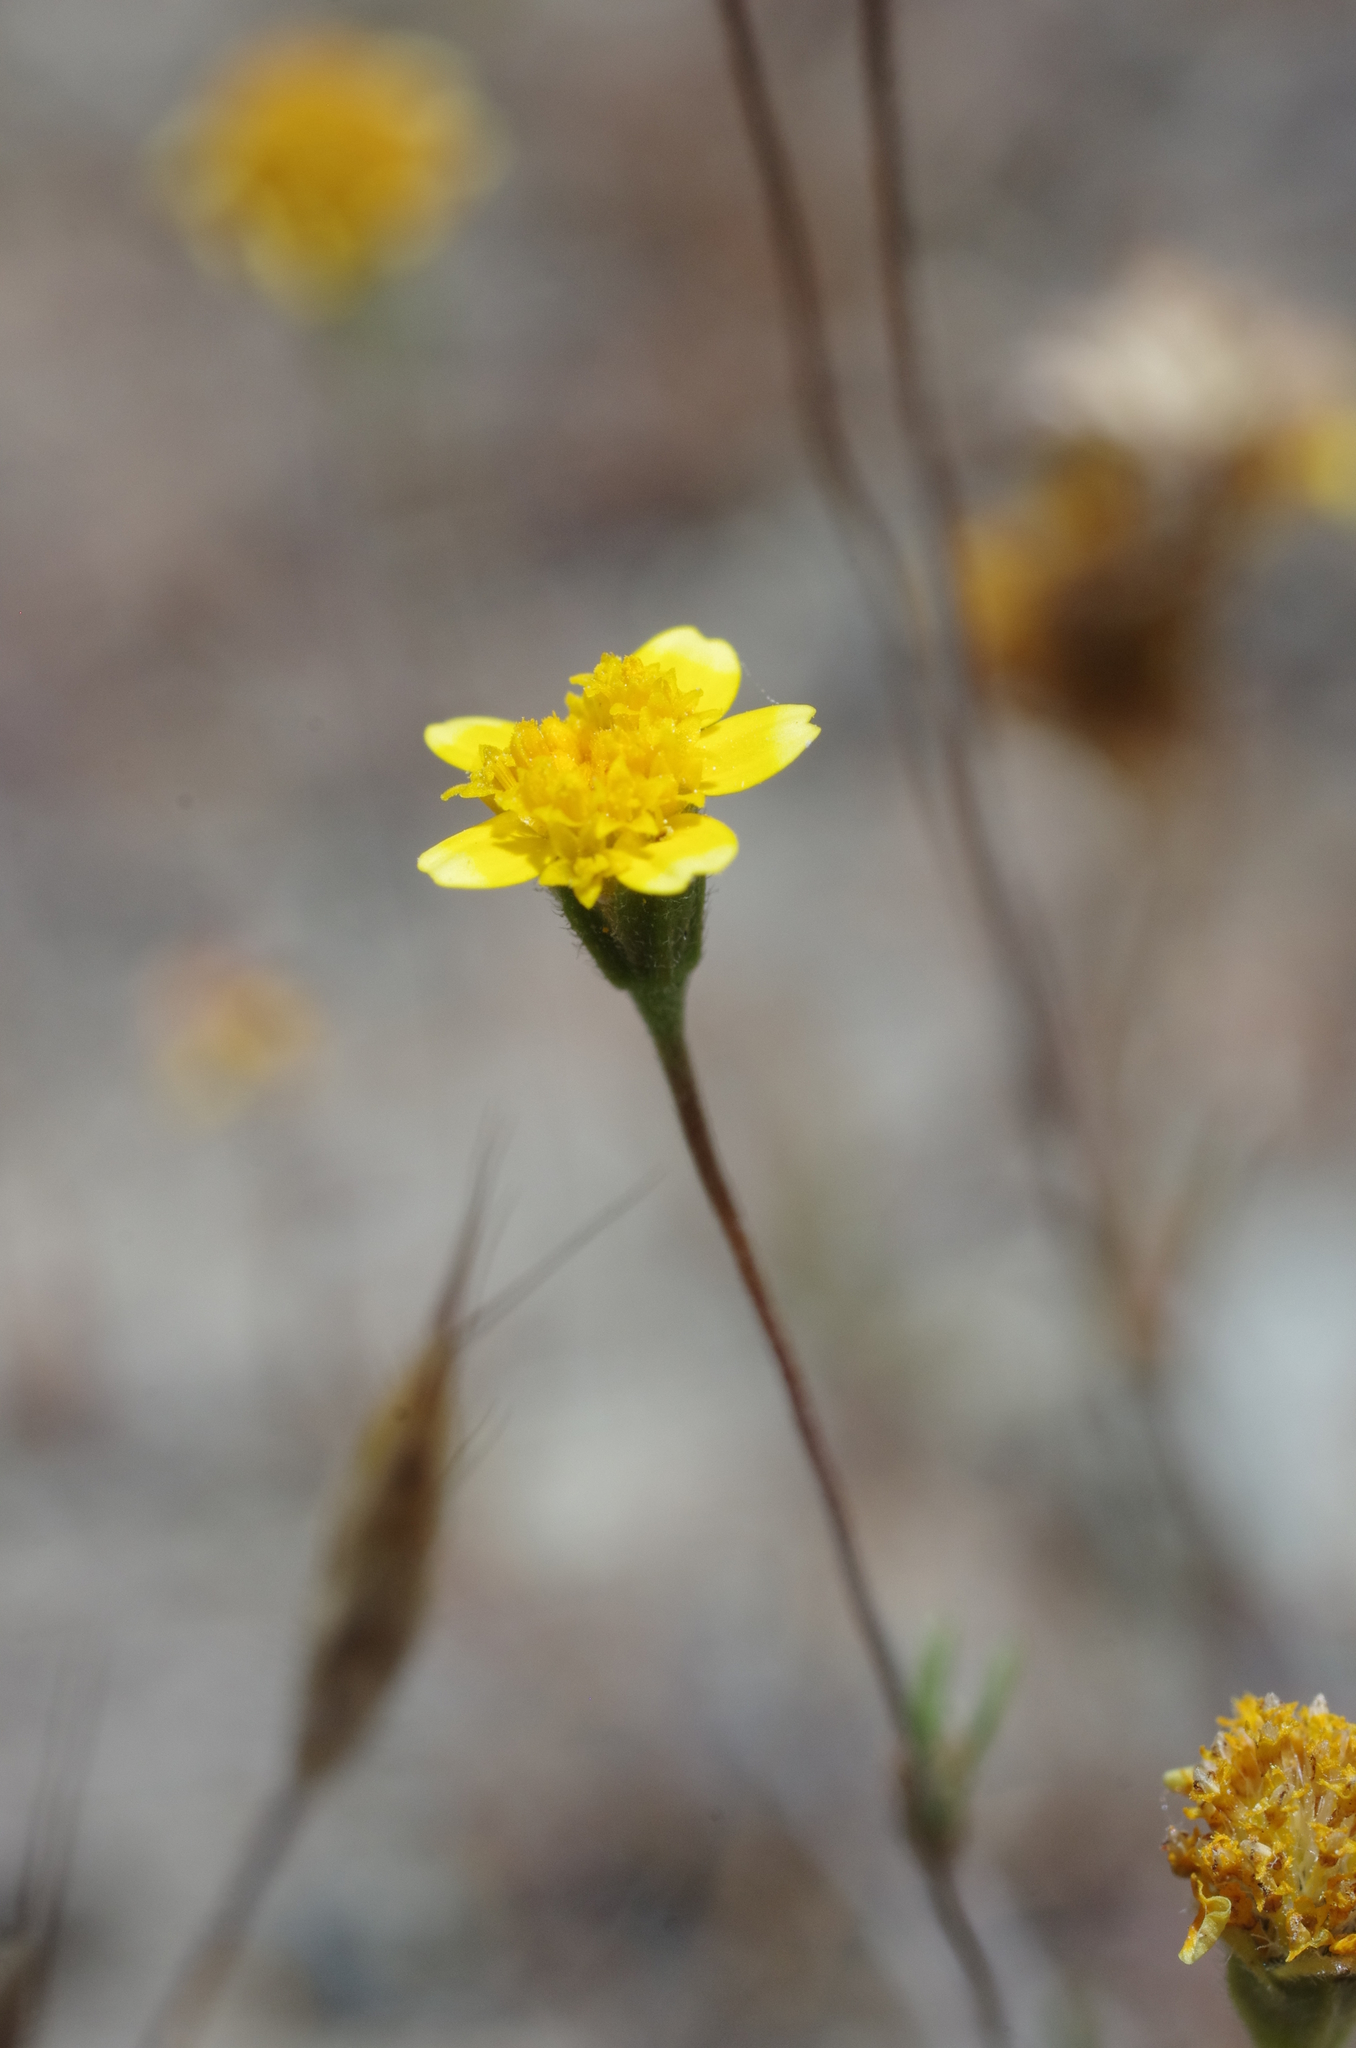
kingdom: Plantae
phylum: Tracheophyta
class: Magnoliopsida
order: Asterales
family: Asteraceae
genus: Lasthenia
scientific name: Lasthenia californica
